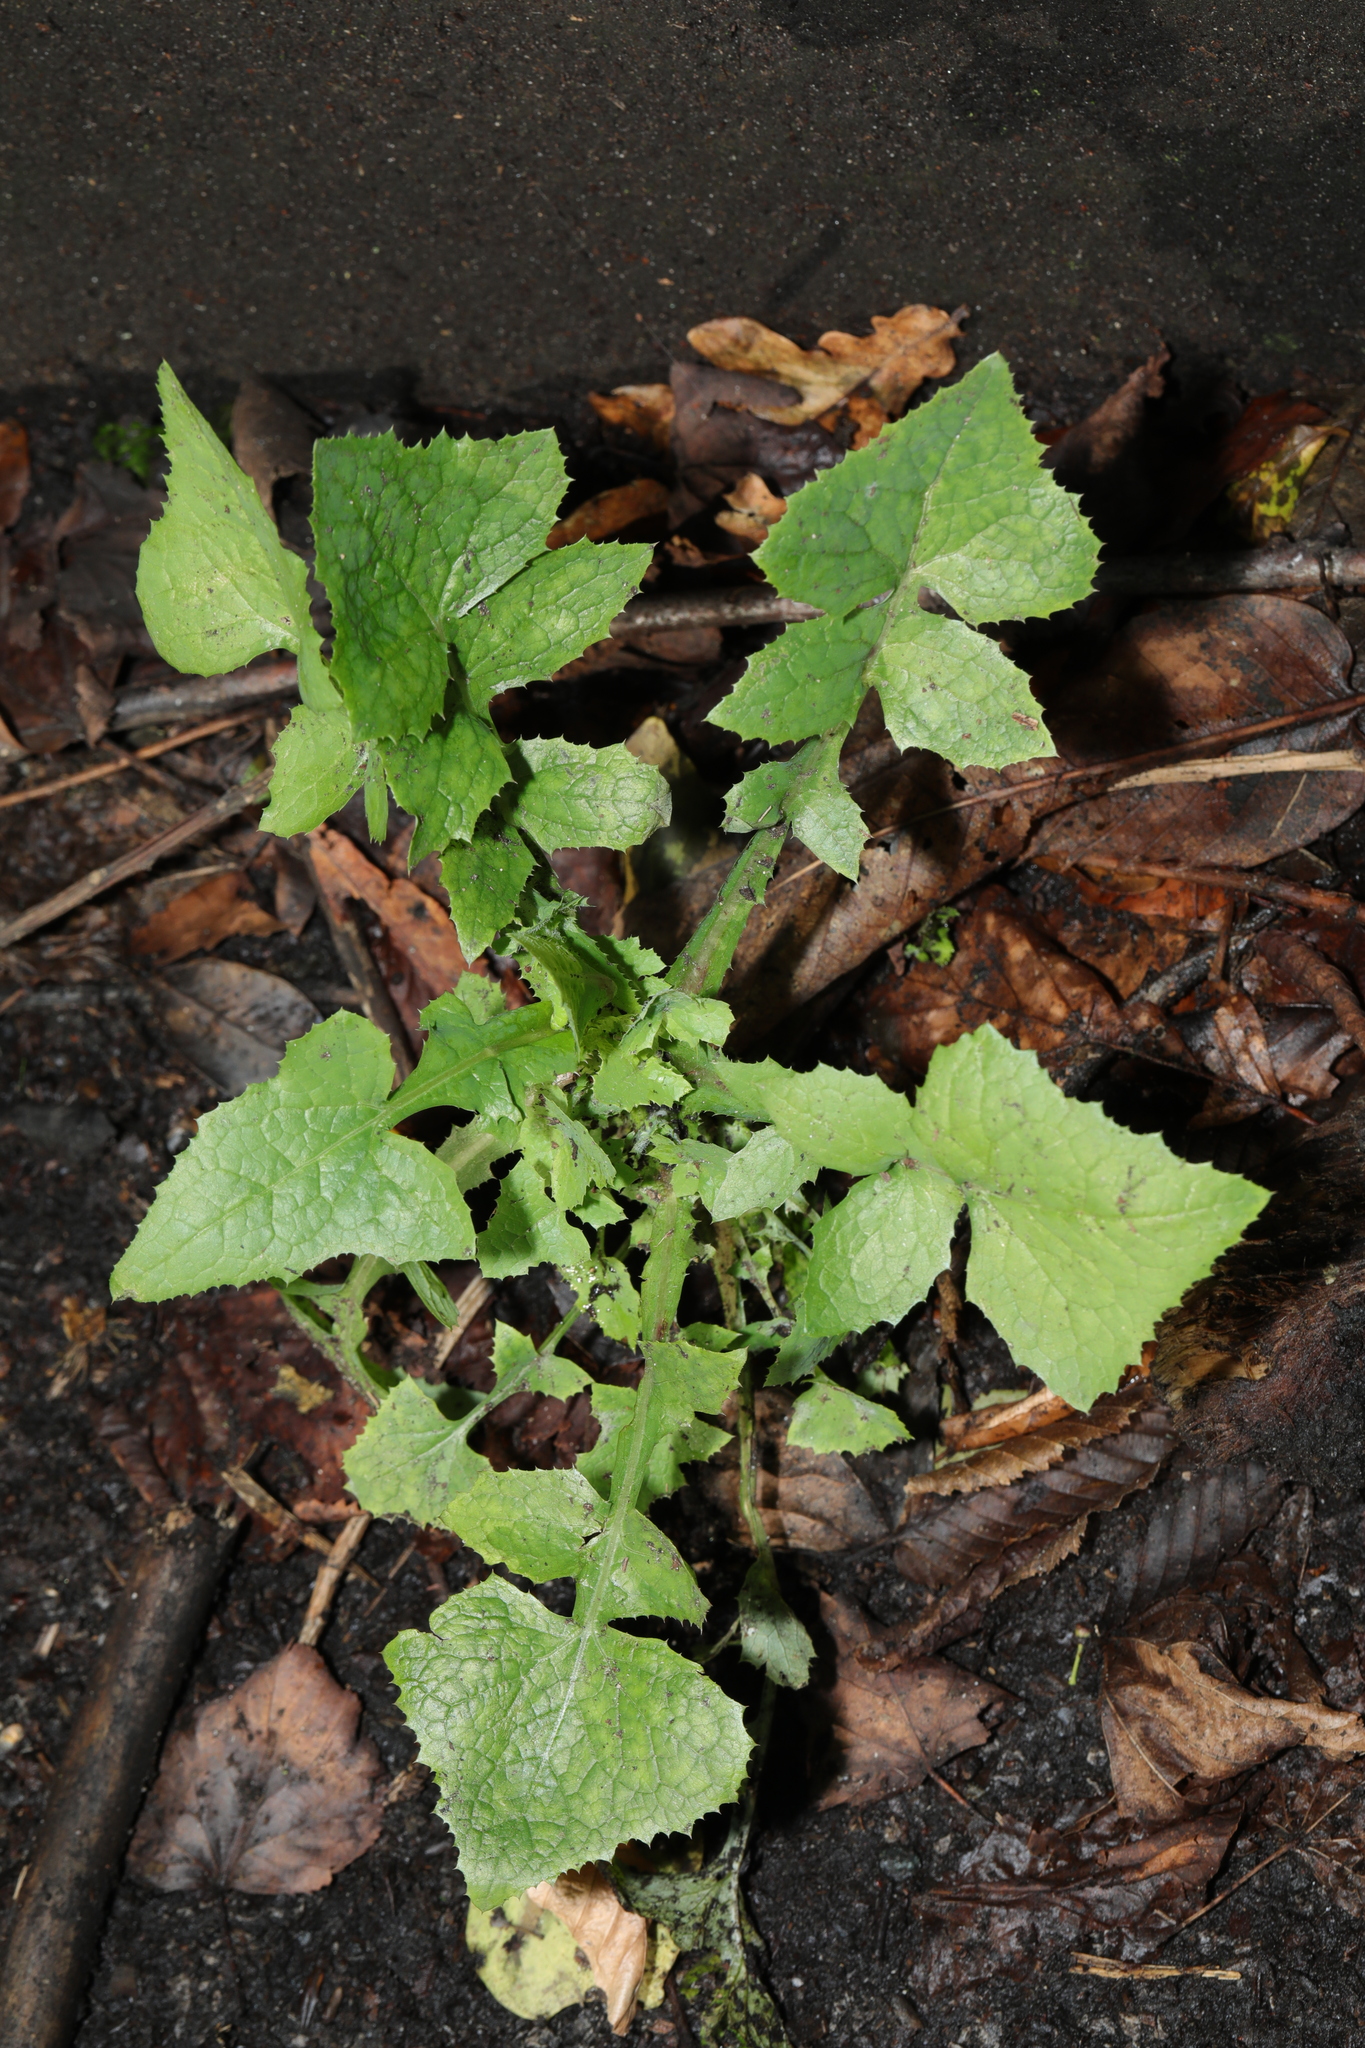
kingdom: Plantae
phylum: Tracheophyta
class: Magnoliopsida
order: Asterales
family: Asteraceae
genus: Sonchus
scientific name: Sonchus oleraceus
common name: Common sowthistle
